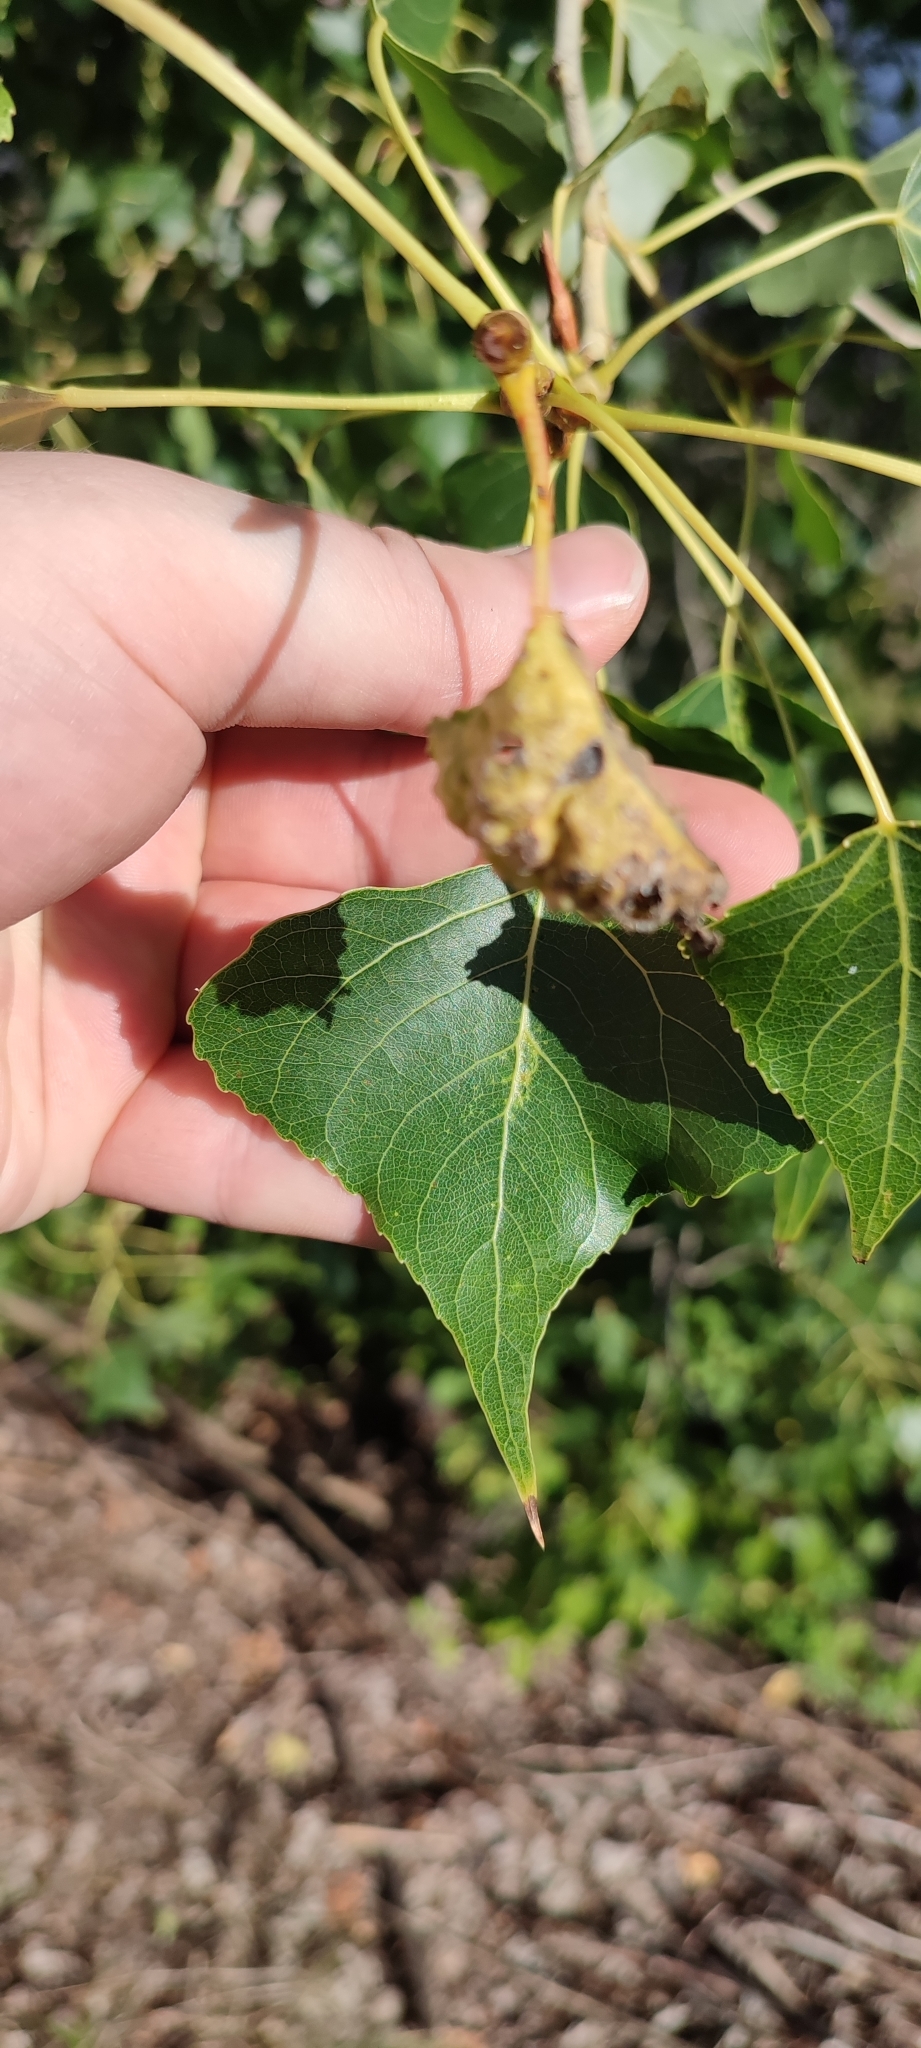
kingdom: Plantae
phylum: Tracheophyta
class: Magnoliopsida
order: Malpighiales
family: Salicaceae
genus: Populus
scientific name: Populus nigra
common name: Black poplar
